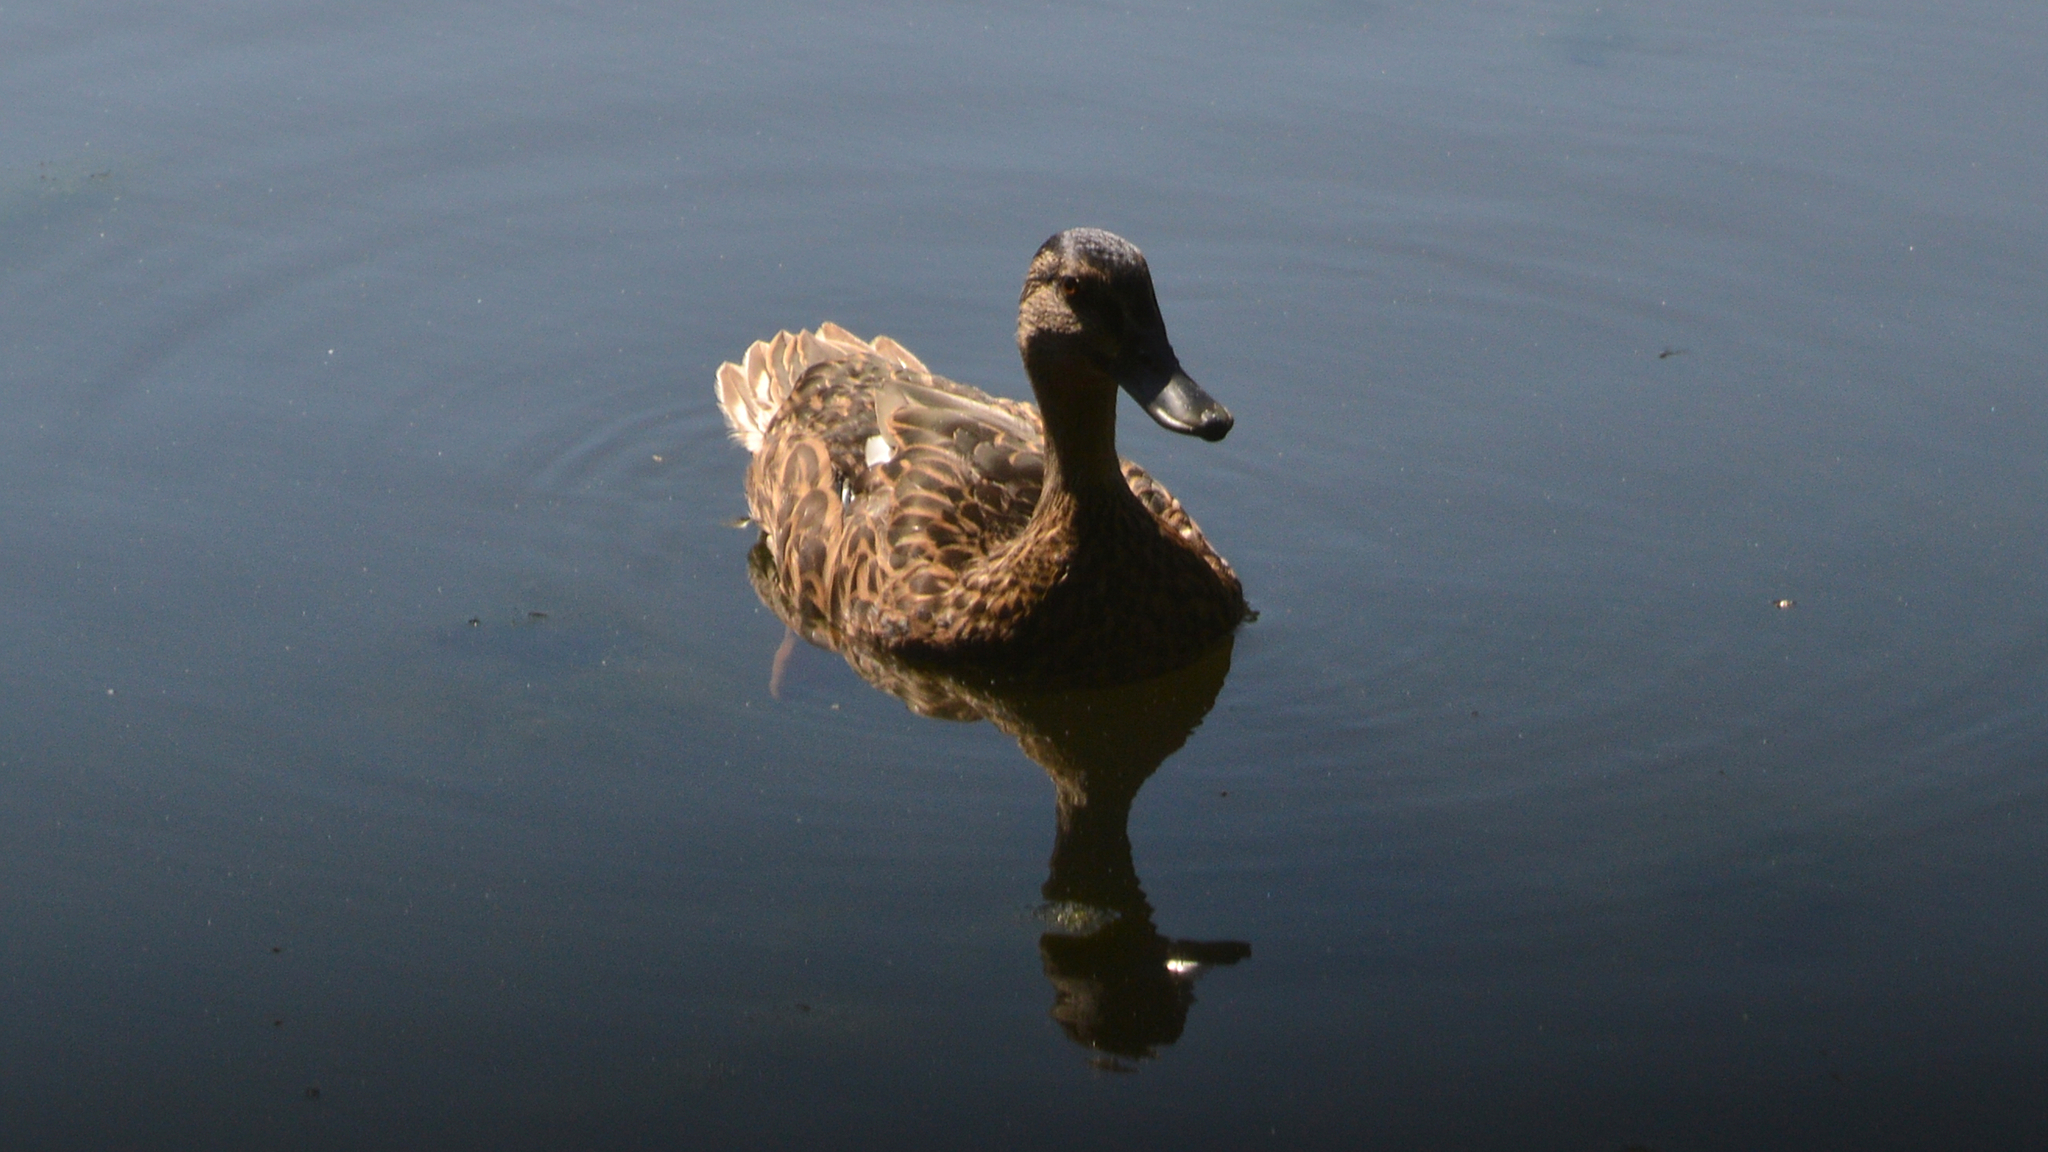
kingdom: Animalia
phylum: Chordata
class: Aves
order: Anseriformes
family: Anatidae
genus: Anas
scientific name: Anas platyrhynchos
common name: Mallard
